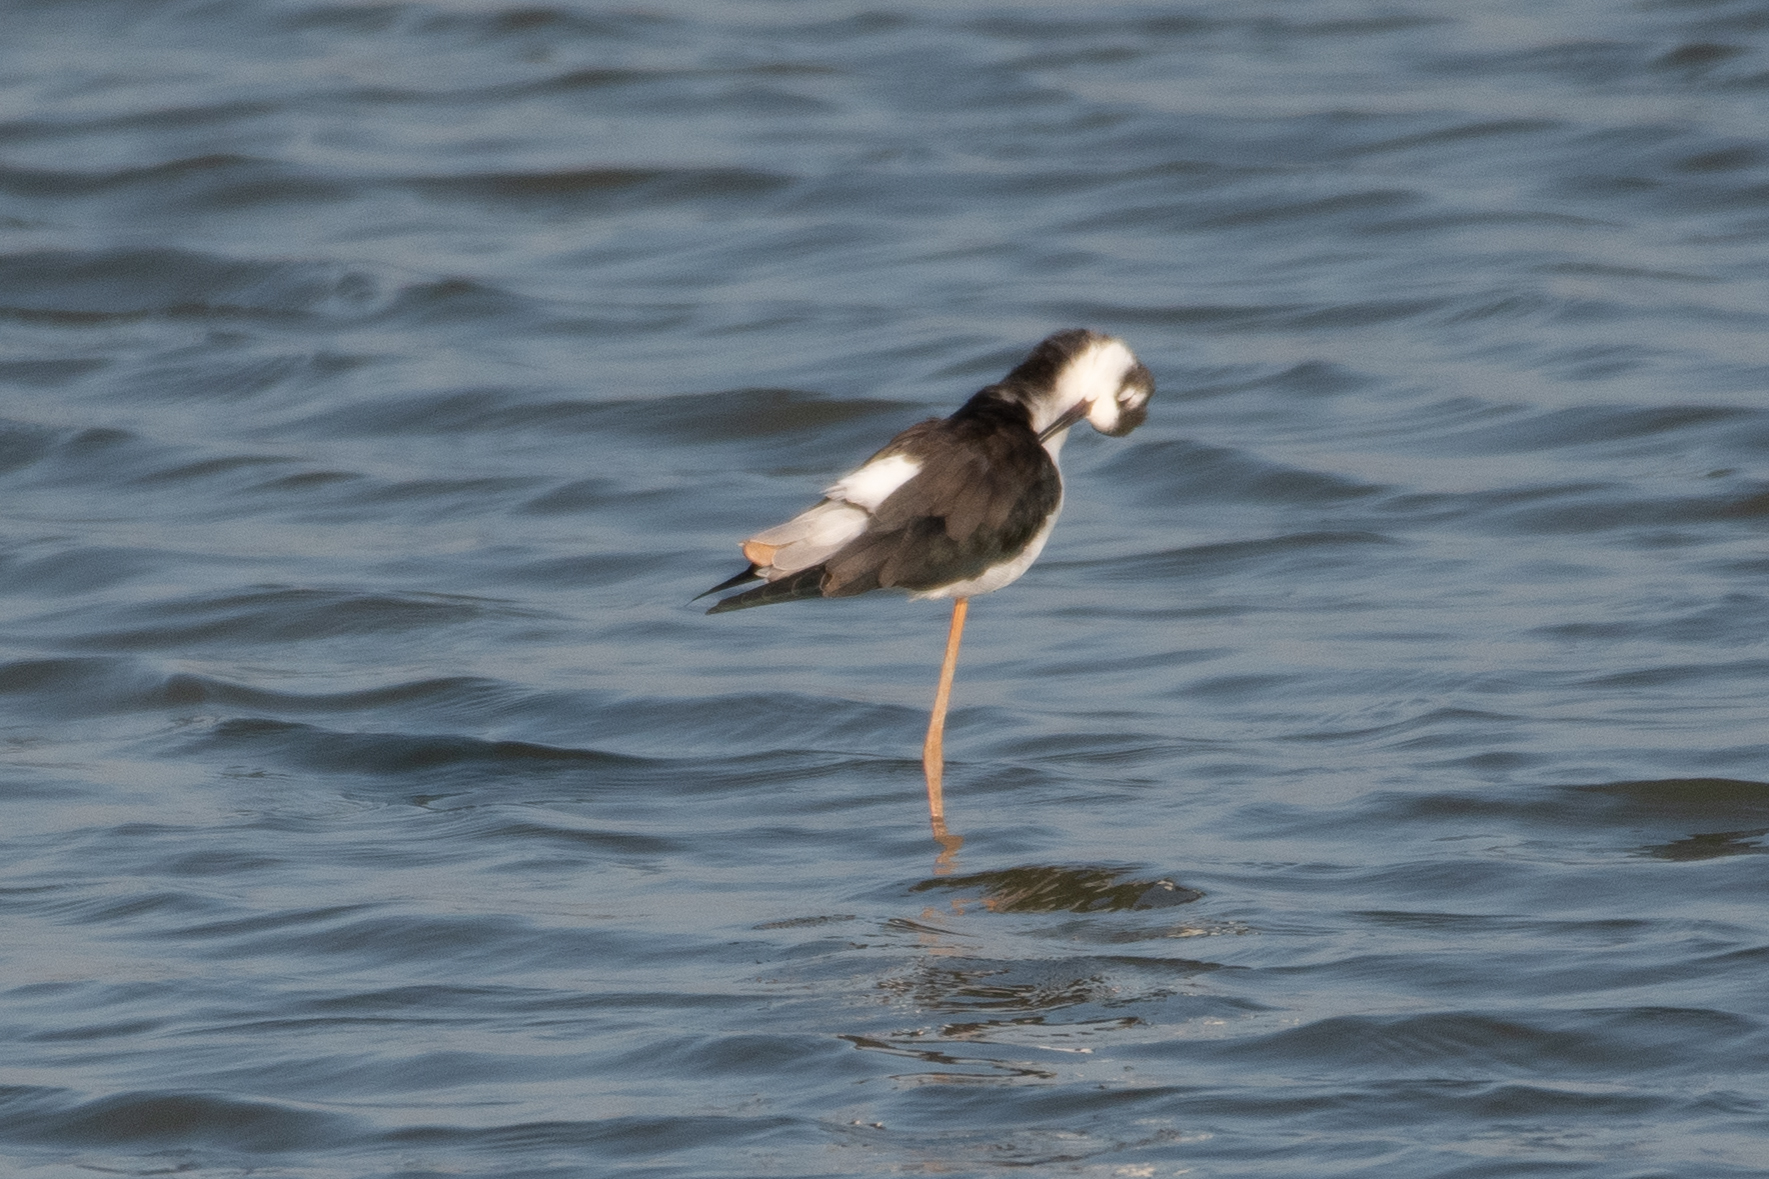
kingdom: Animalia
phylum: Chordata
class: Aves
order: Charadriiformes
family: Recurvirostridae
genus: Himantopus
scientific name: Himantopus mexicanus
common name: Black-necked stilt
